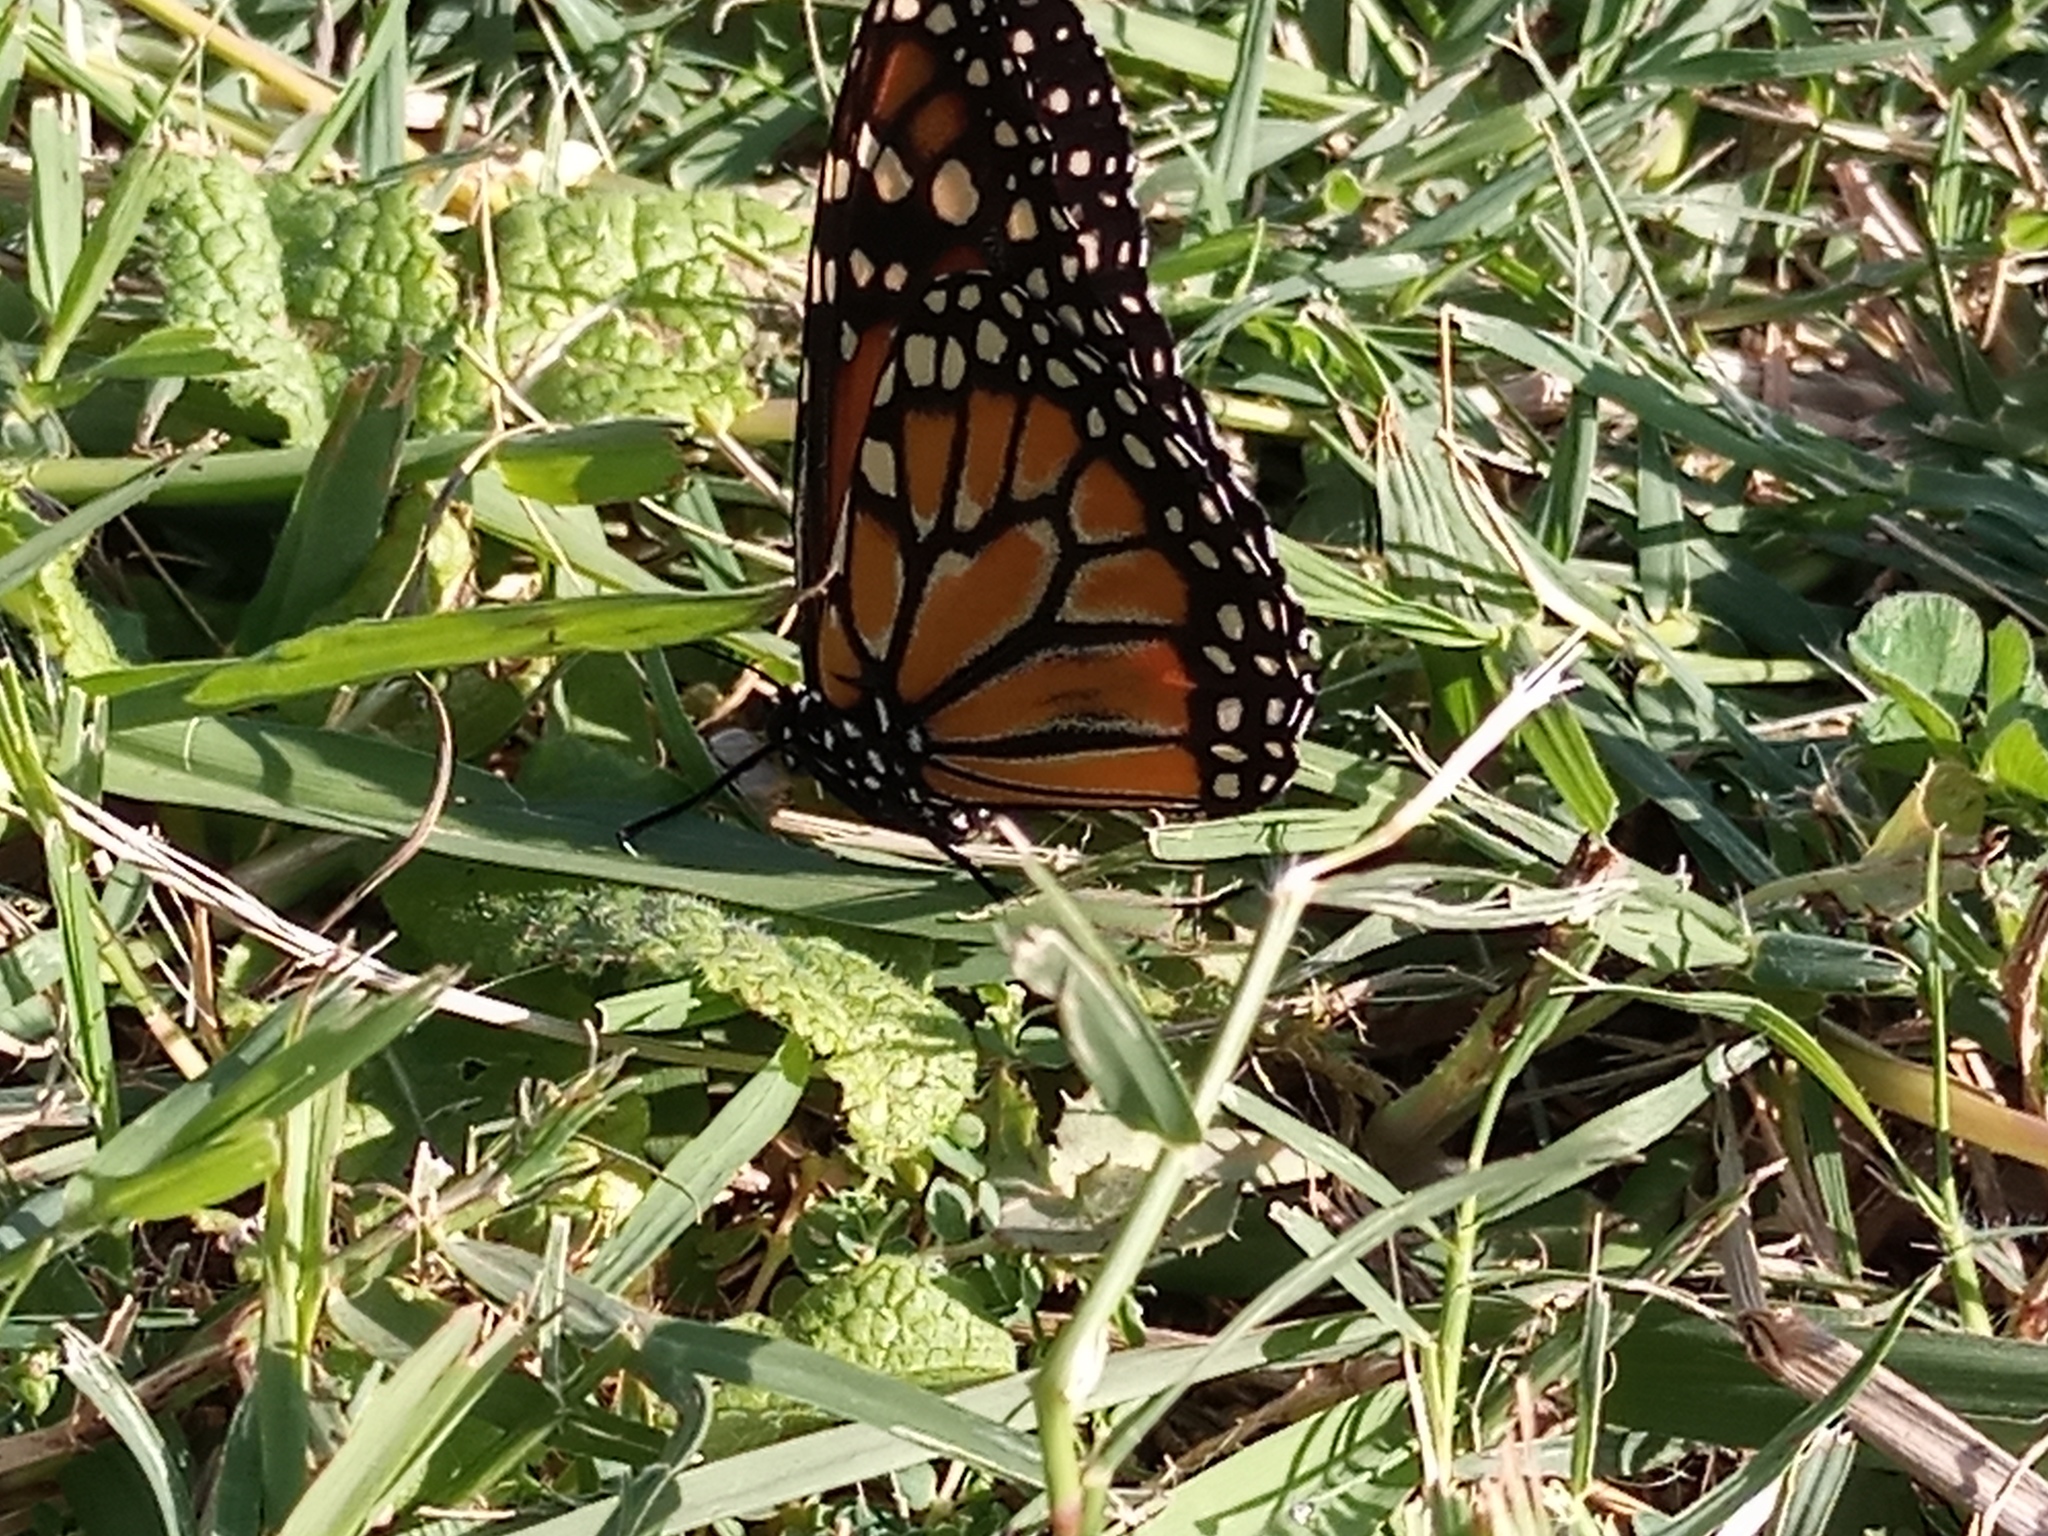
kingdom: Animalia
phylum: Arthropoda
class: Insecta
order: Lepidoptera
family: Nymphalidae
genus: Danaus
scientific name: Danaus erippus
